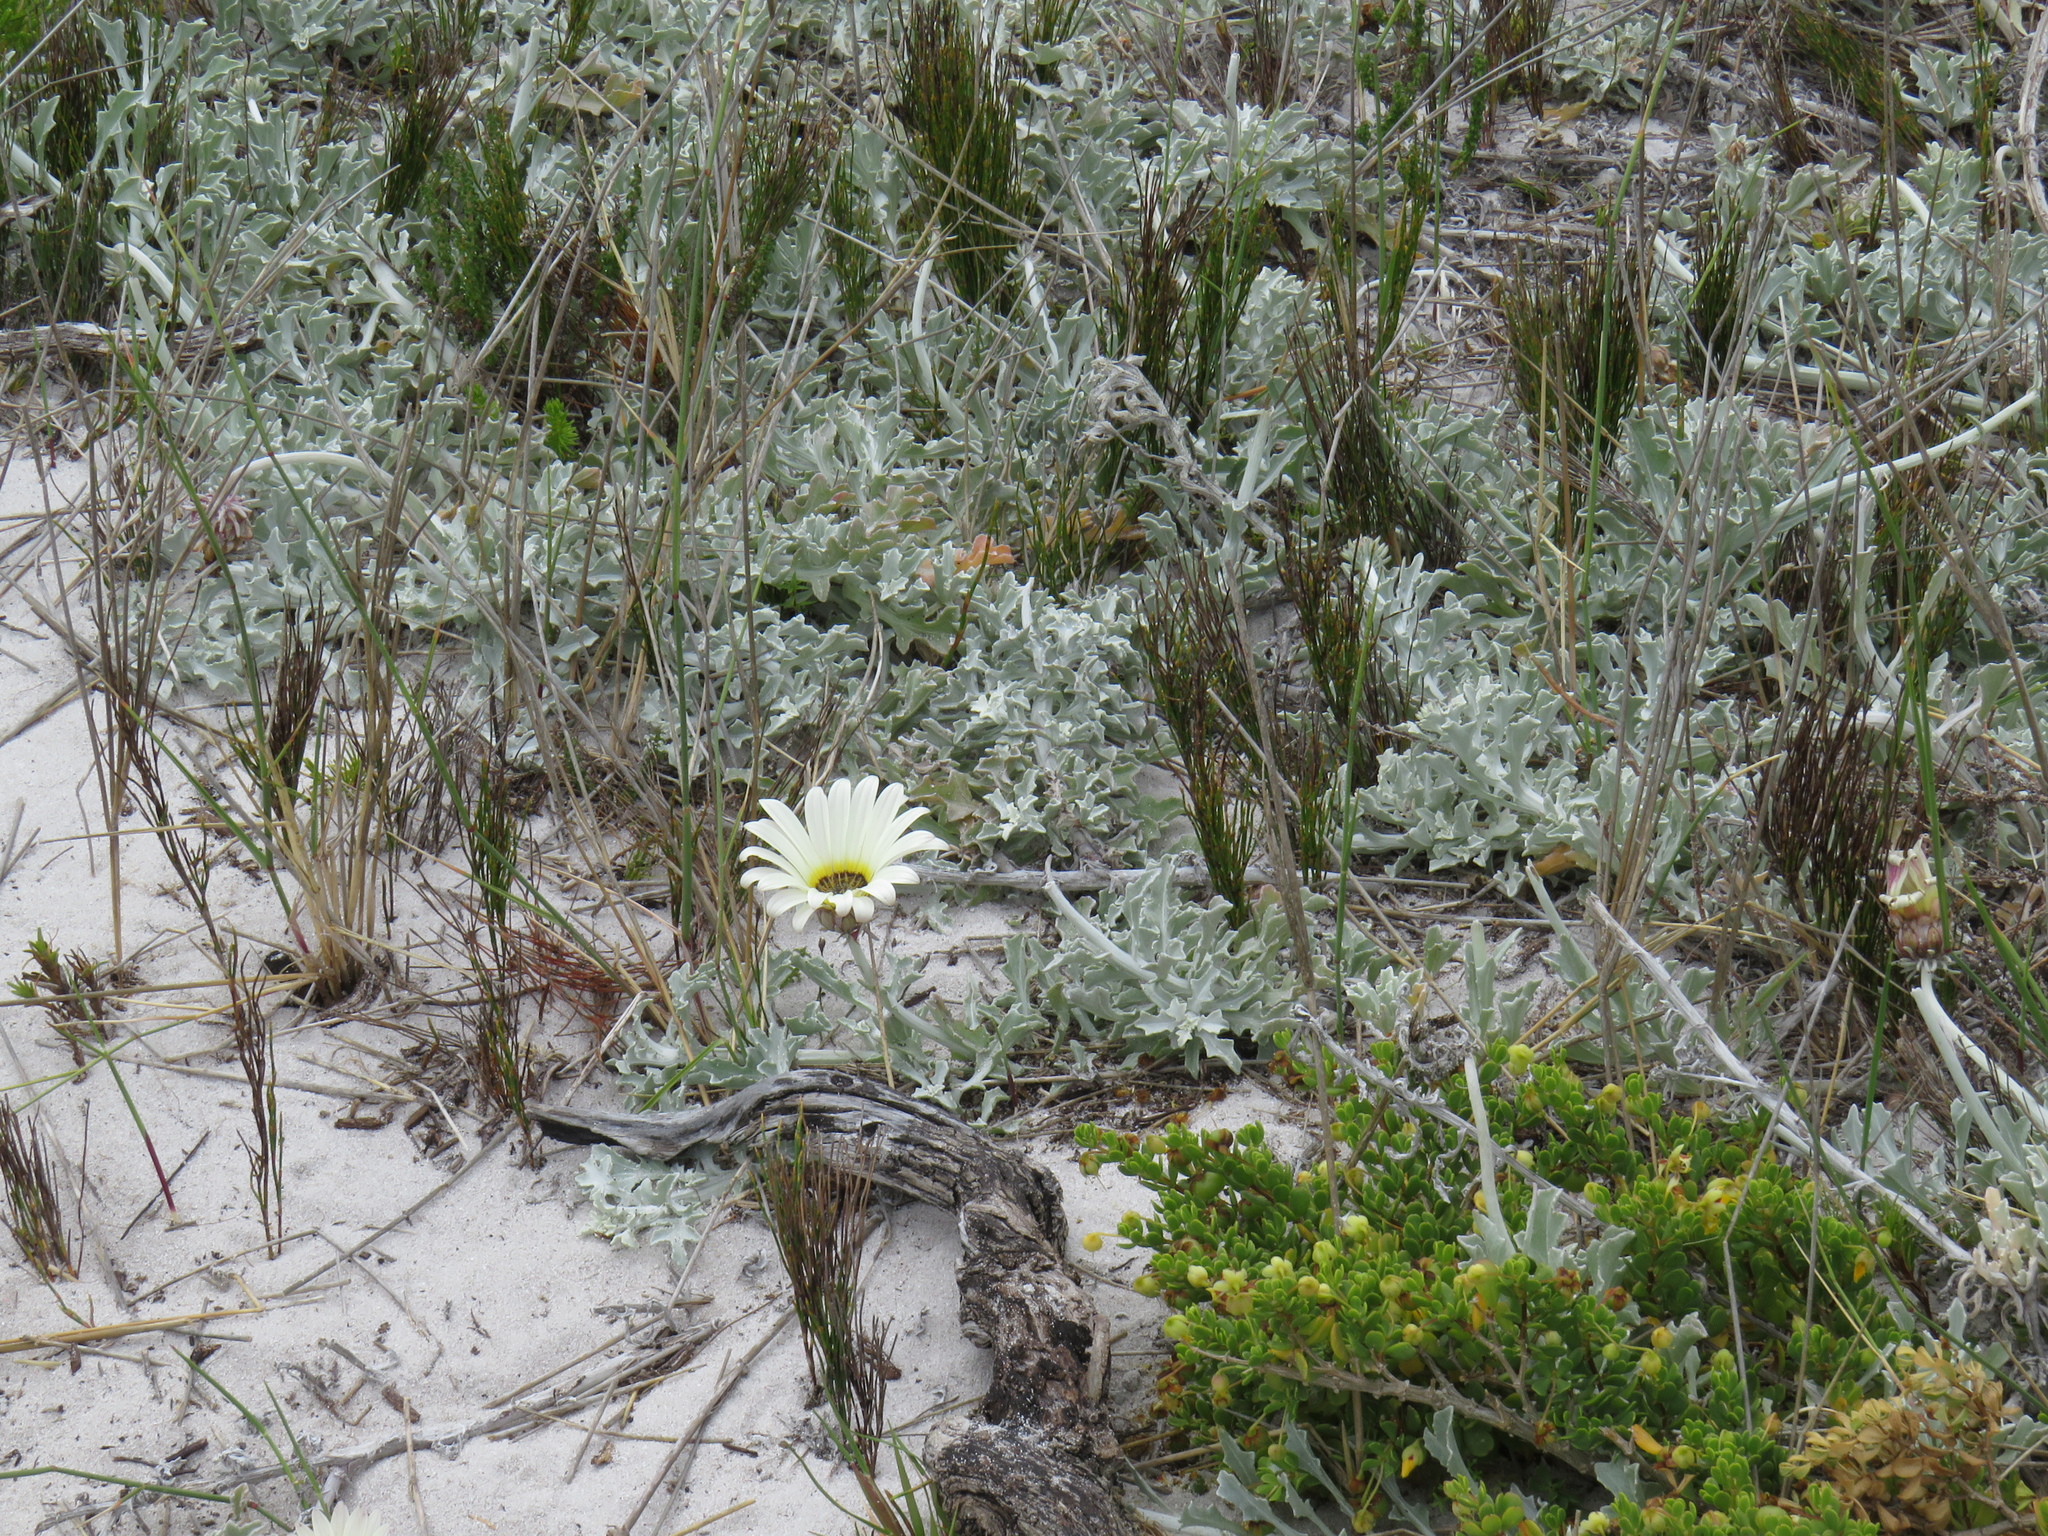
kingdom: Plantae
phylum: Tracheophyta
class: Magnoliopsida
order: Asterales
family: Asteraceae
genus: Arctotis
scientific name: Arctotis stoechadifolia
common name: African daisy
